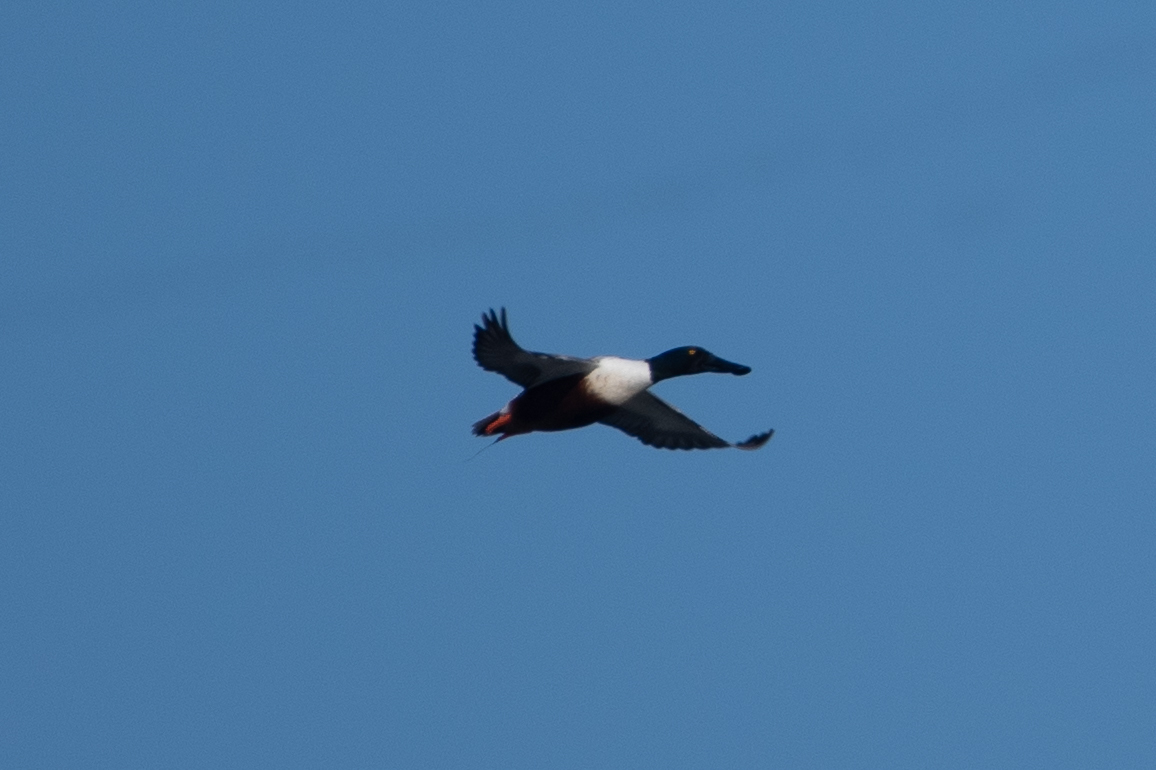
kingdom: Animalia
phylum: Chordata
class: Aves
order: Anseriformes
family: Anatidae
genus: Spatula
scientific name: Spatula clypeata
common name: Northern shoveler
